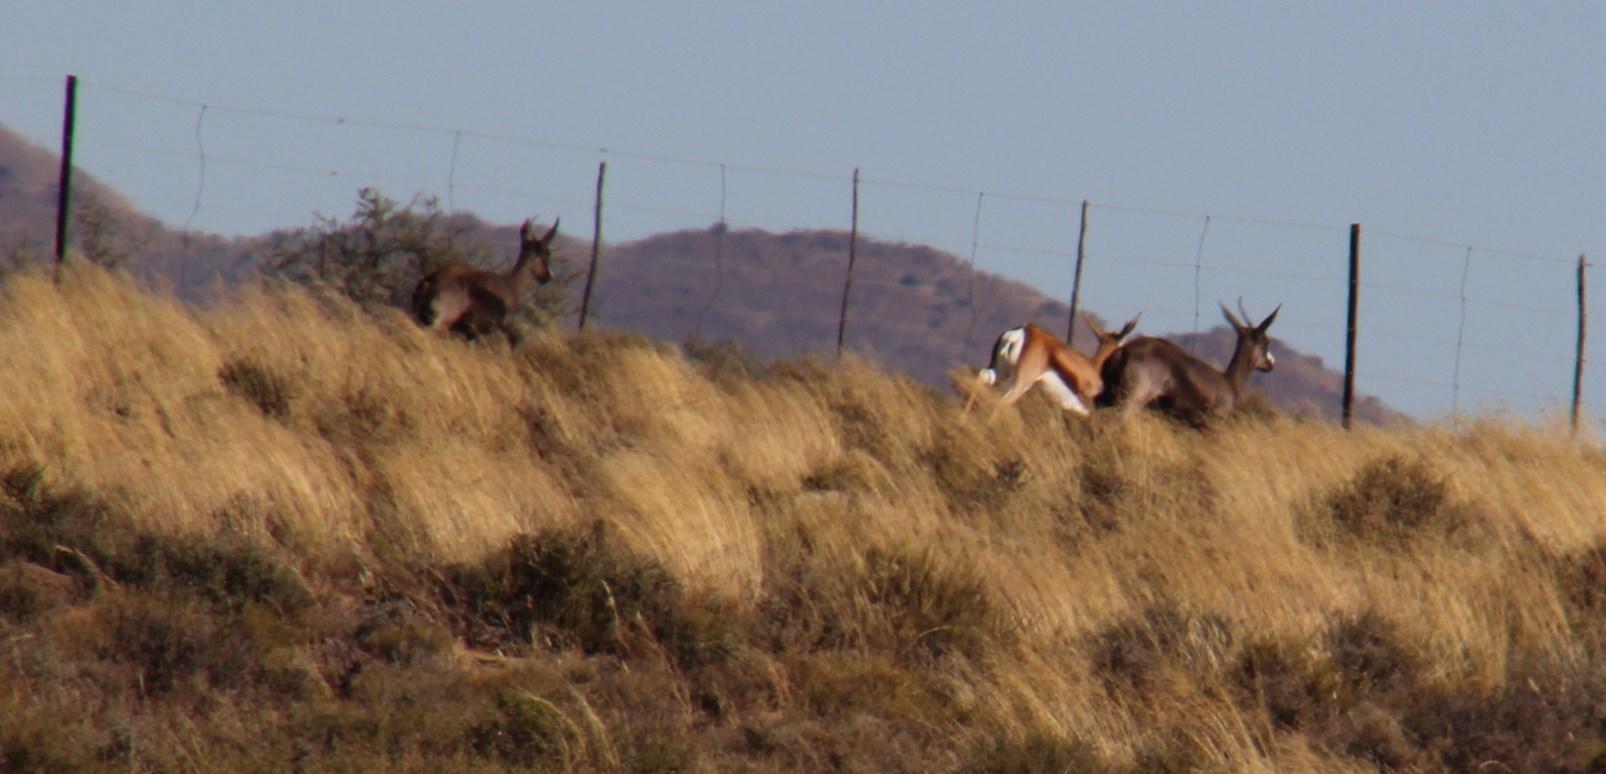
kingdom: Animalia
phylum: Chordata
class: Mammalia
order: Artiodactyla
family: Bovidae
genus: Antidorcas
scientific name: Antidorcas marsupialis
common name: Springbok
